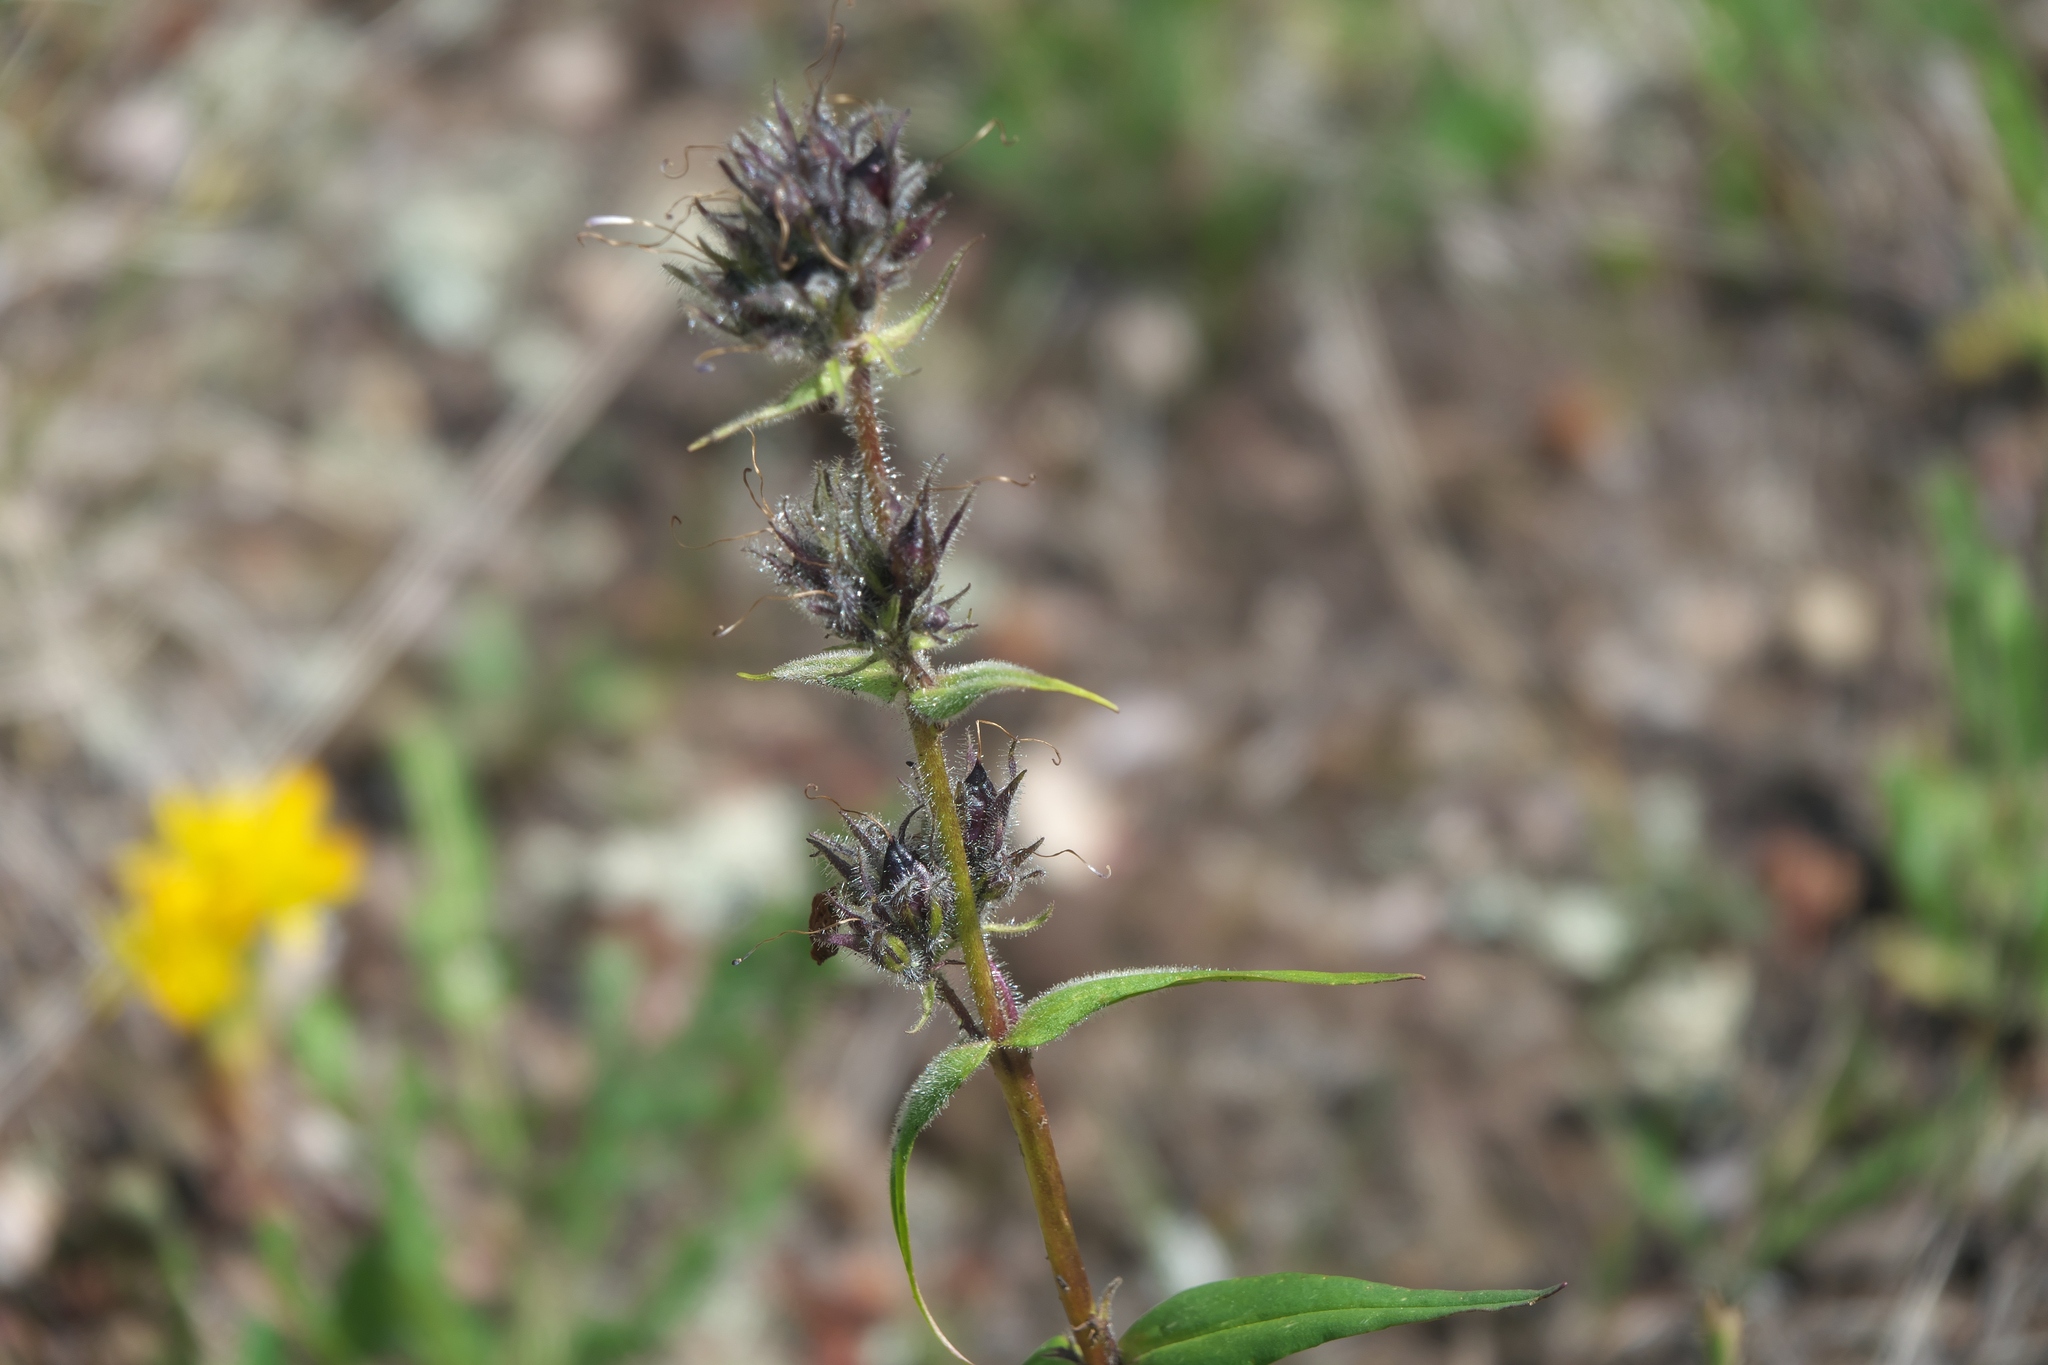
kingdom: Plantae
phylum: Tracheophyta
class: Magnoliopsida
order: Lamiales
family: Plantaginaceae
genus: Penstemon
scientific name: Penstemon whippleanus
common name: Whipple's penstemon
